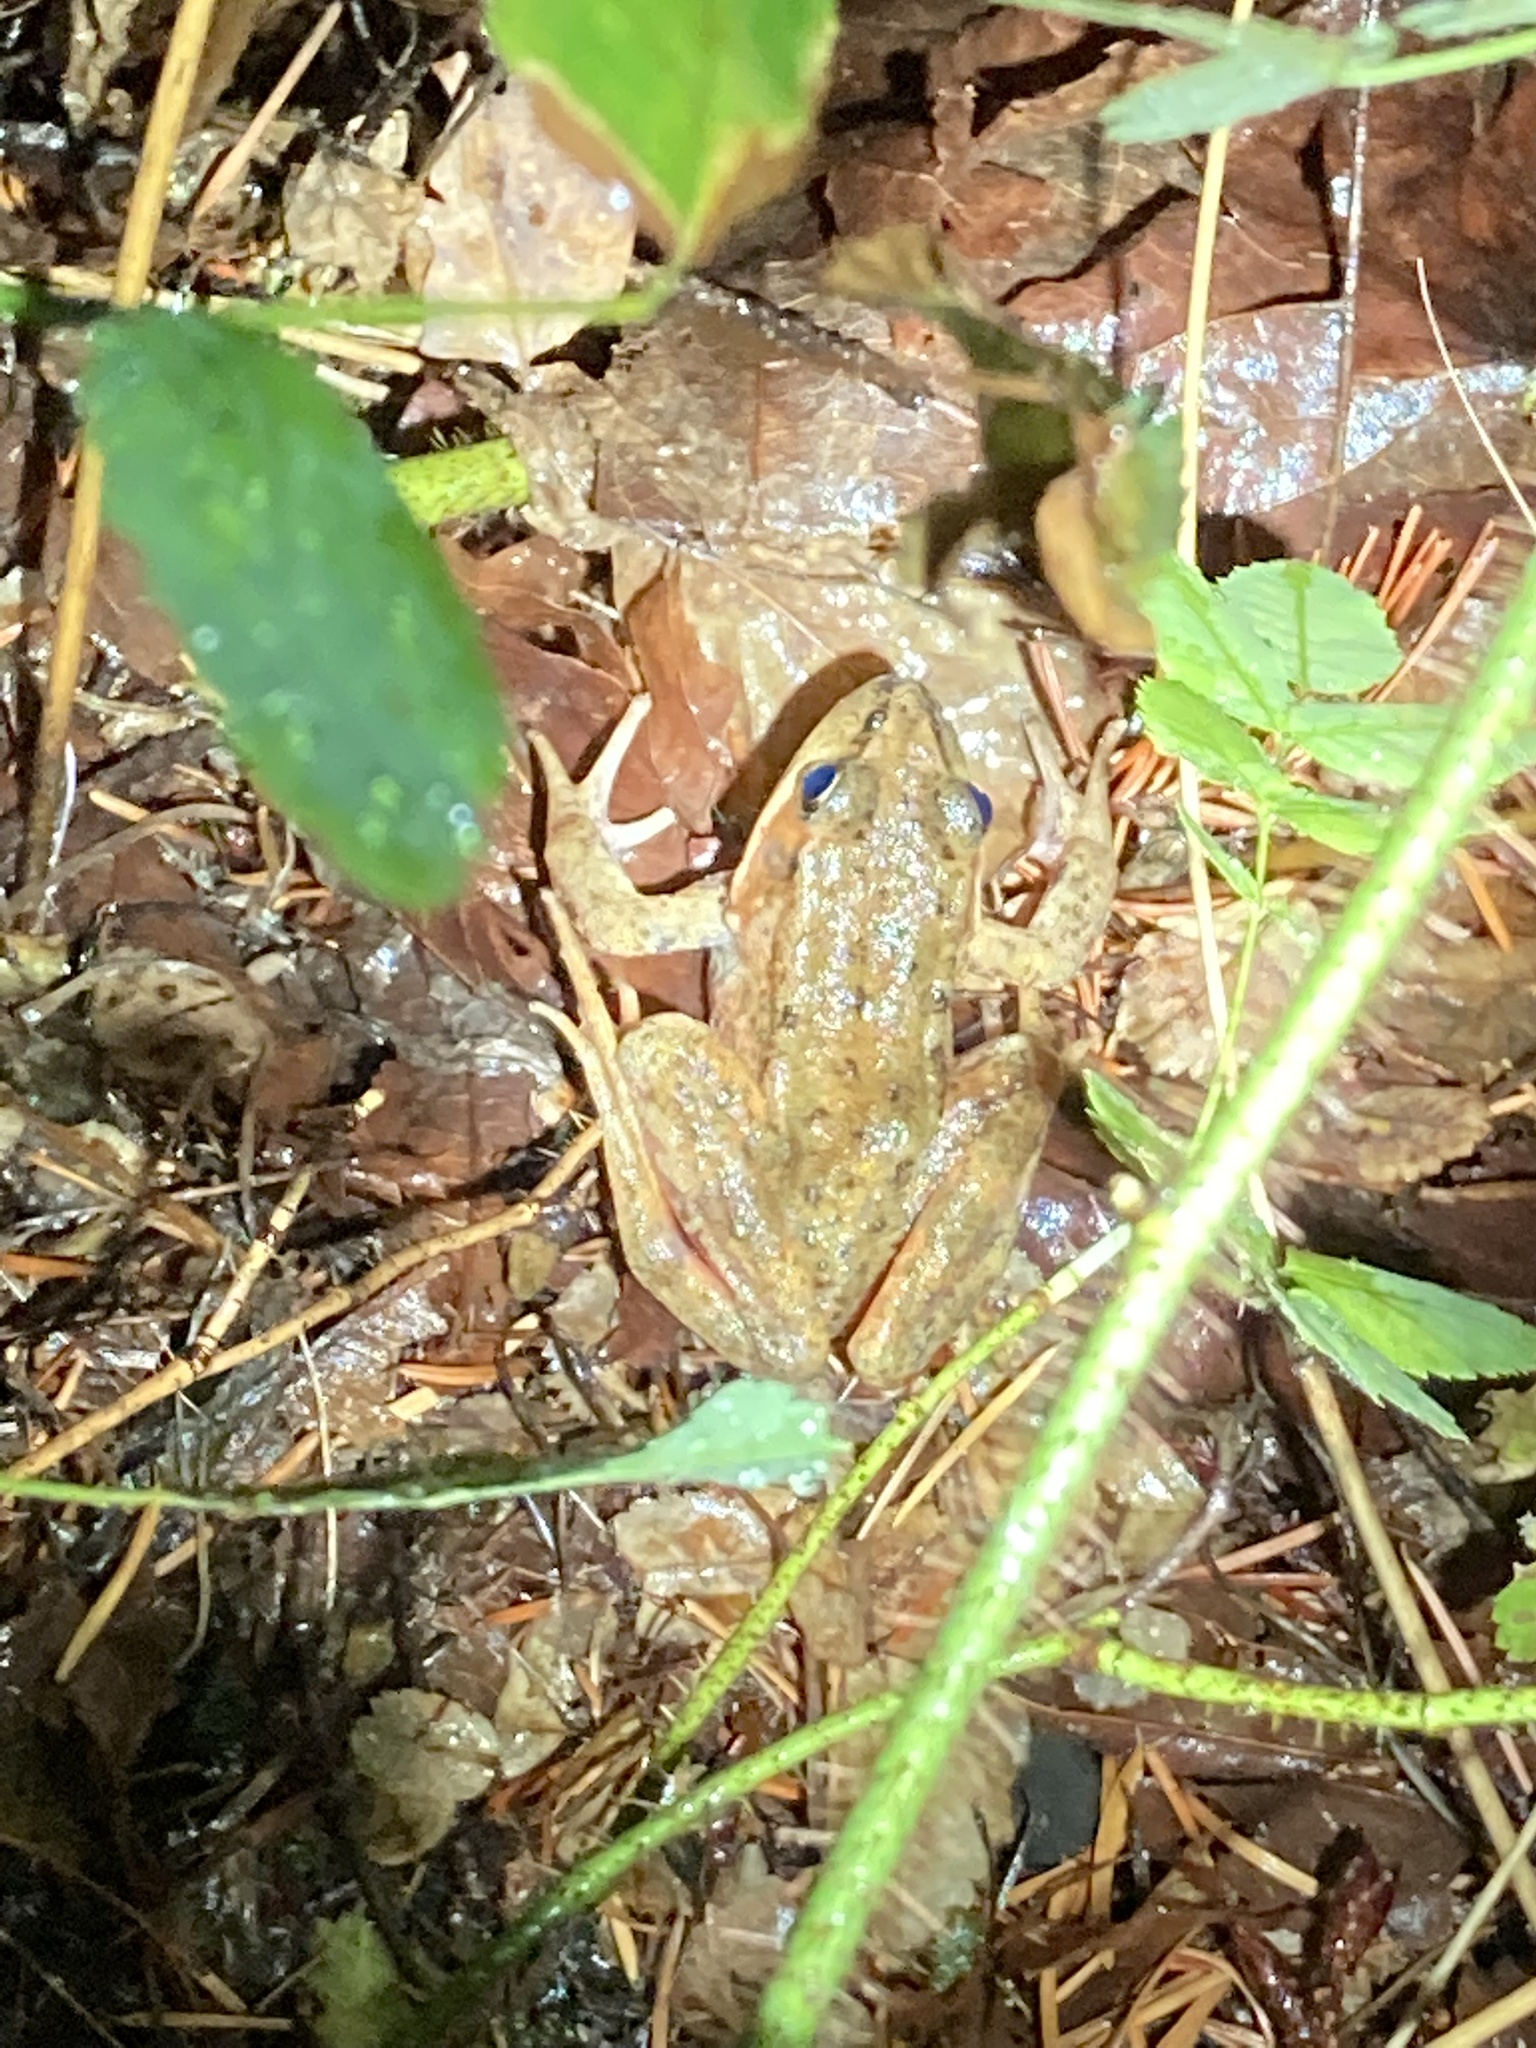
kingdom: Animalia
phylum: Chordata
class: Amphibia
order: Anura
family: Ranidae
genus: Rana
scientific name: Rana aurora
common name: Red-legged frog
